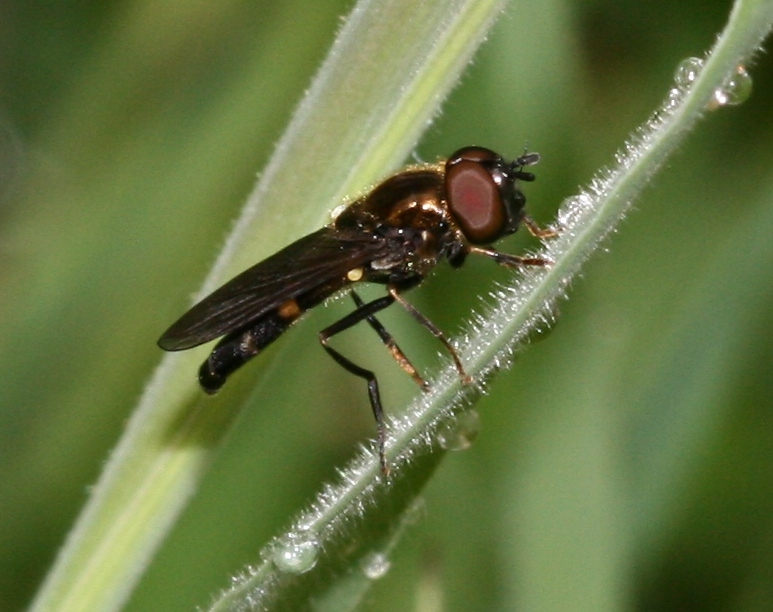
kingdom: Animalia
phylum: Arthropoda
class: Insecta
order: Diptera
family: Syrphidae
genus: Pyrophaena
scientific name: Pyrophaena rosarum
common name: Fourspot sedgesitter
